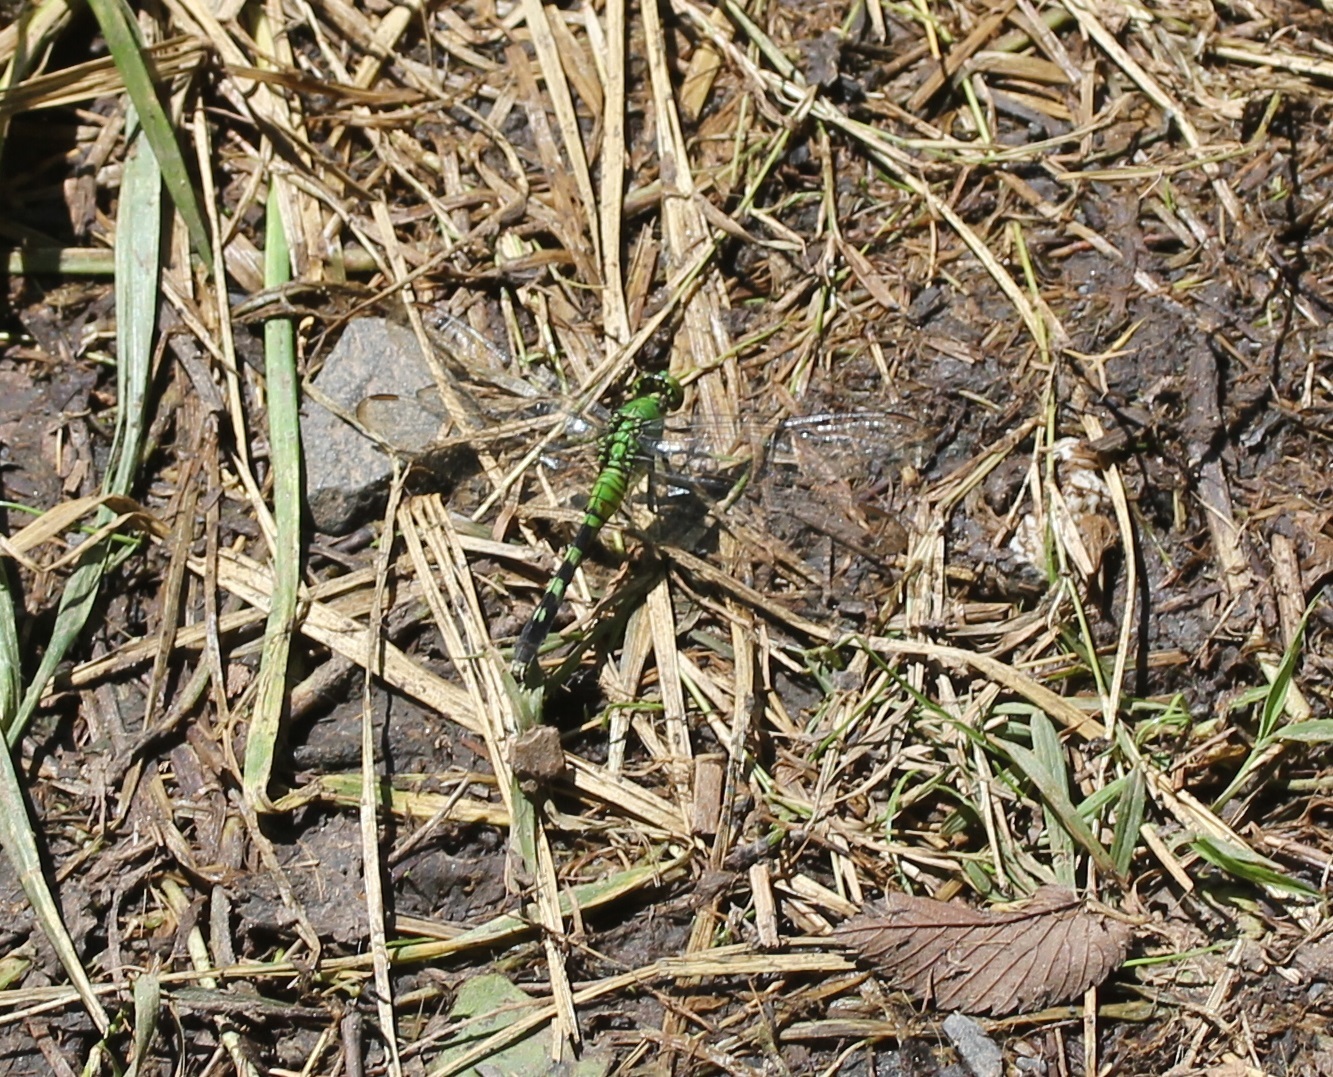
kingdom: Animalia
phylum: Arthropoda
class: Insecta
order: Odonata
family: Libellulidae
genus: Erythemis
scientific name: Erythemis simplicicollis
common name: Eastern pondhawk
